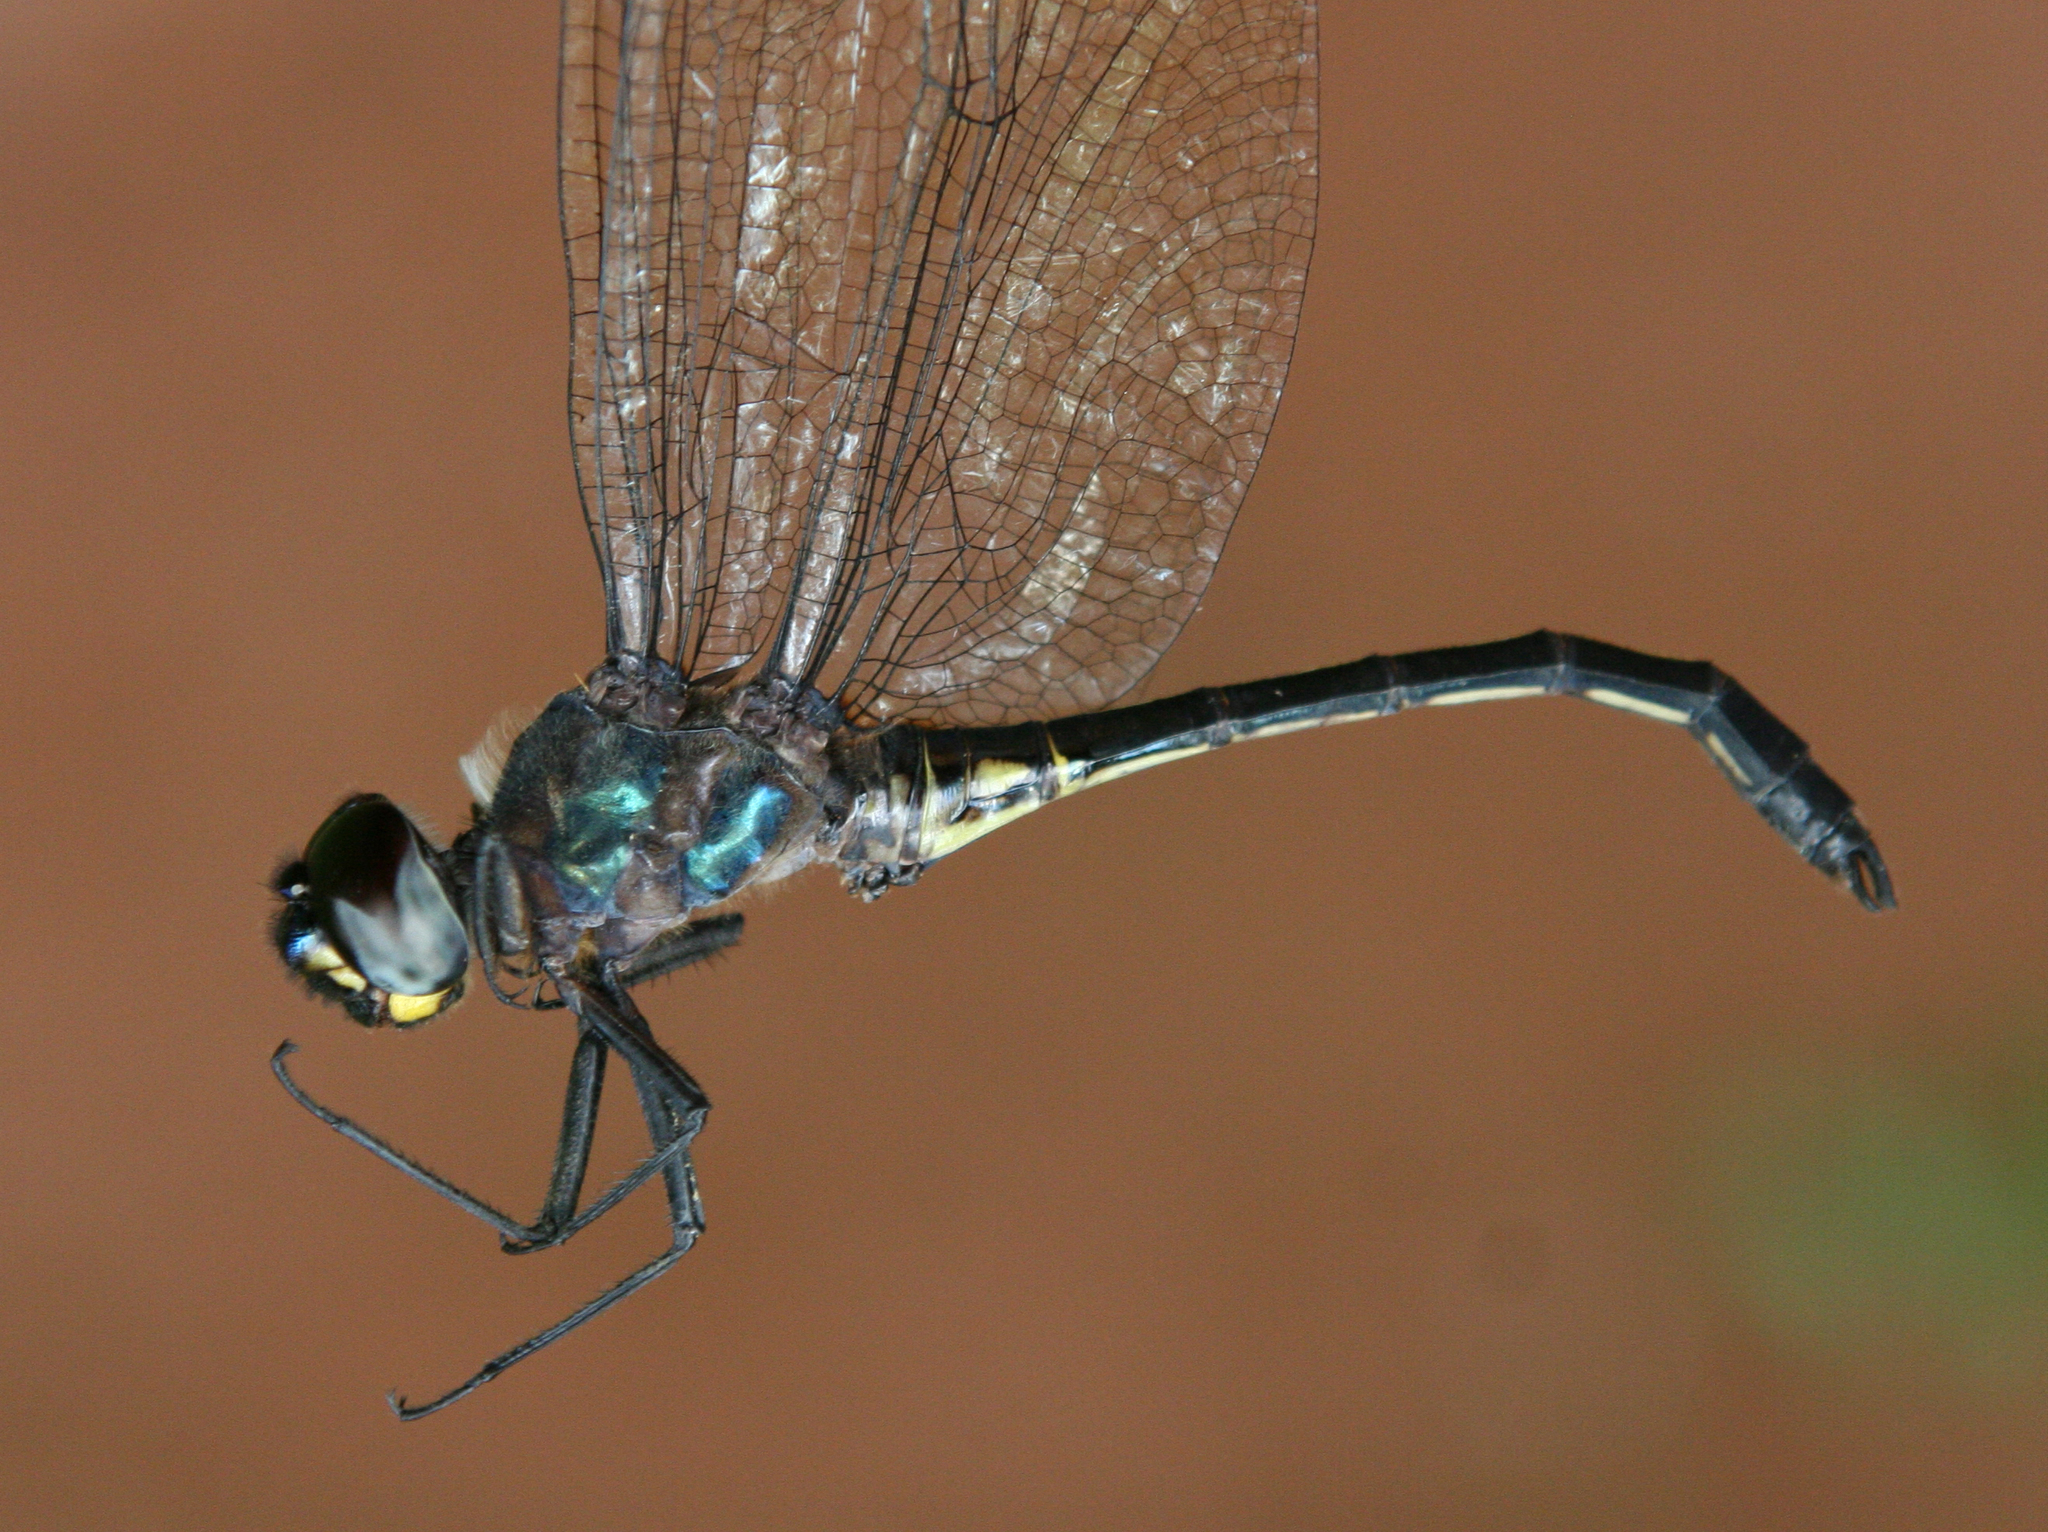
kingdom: Animalia
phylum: Arthropoda
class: Insecta
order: Odonata
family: Libellulidae
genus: Zygonyx
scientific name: Zygonyx iris
